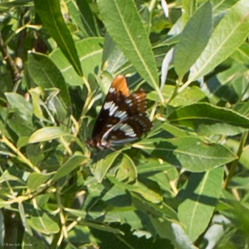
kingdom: Animalia
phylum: Arthropoda
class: Insecta
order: Lepidoptera
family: Nymphalidae
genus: Limenitis
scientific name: Limenitis lorquini
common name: Lorquin's admiral
